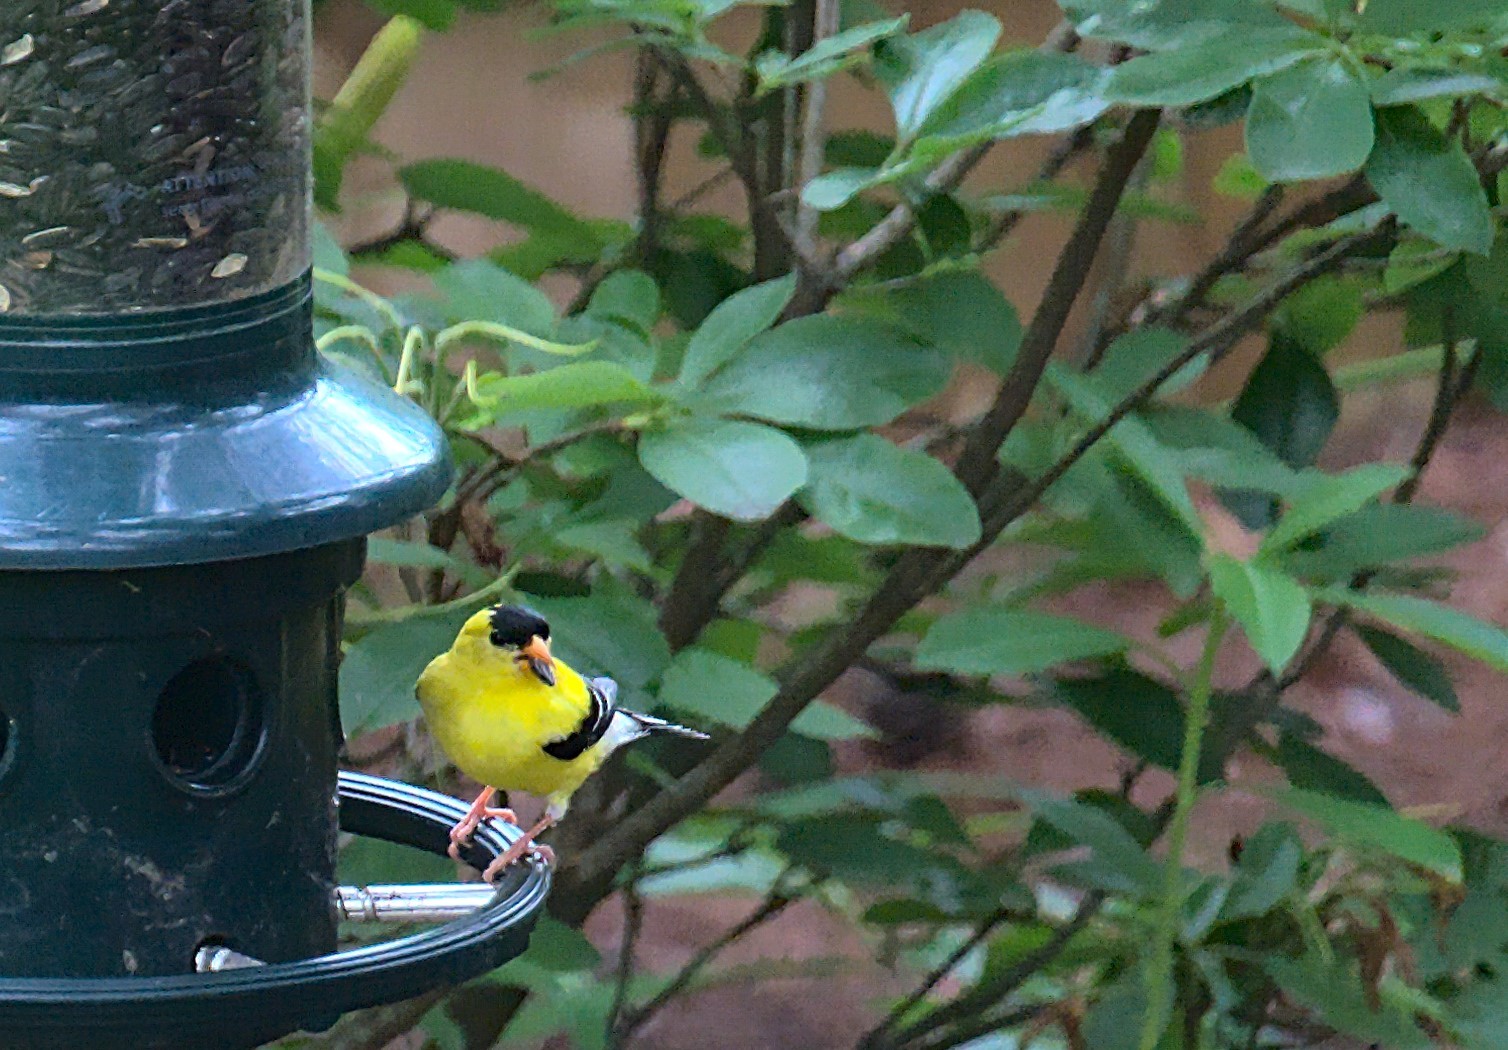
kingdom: Animalia
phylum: Chordata
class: Aves
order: Passeriformes
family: Fringillidae
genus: Spinus
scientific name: Spinus tristis
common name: American goldfinch
